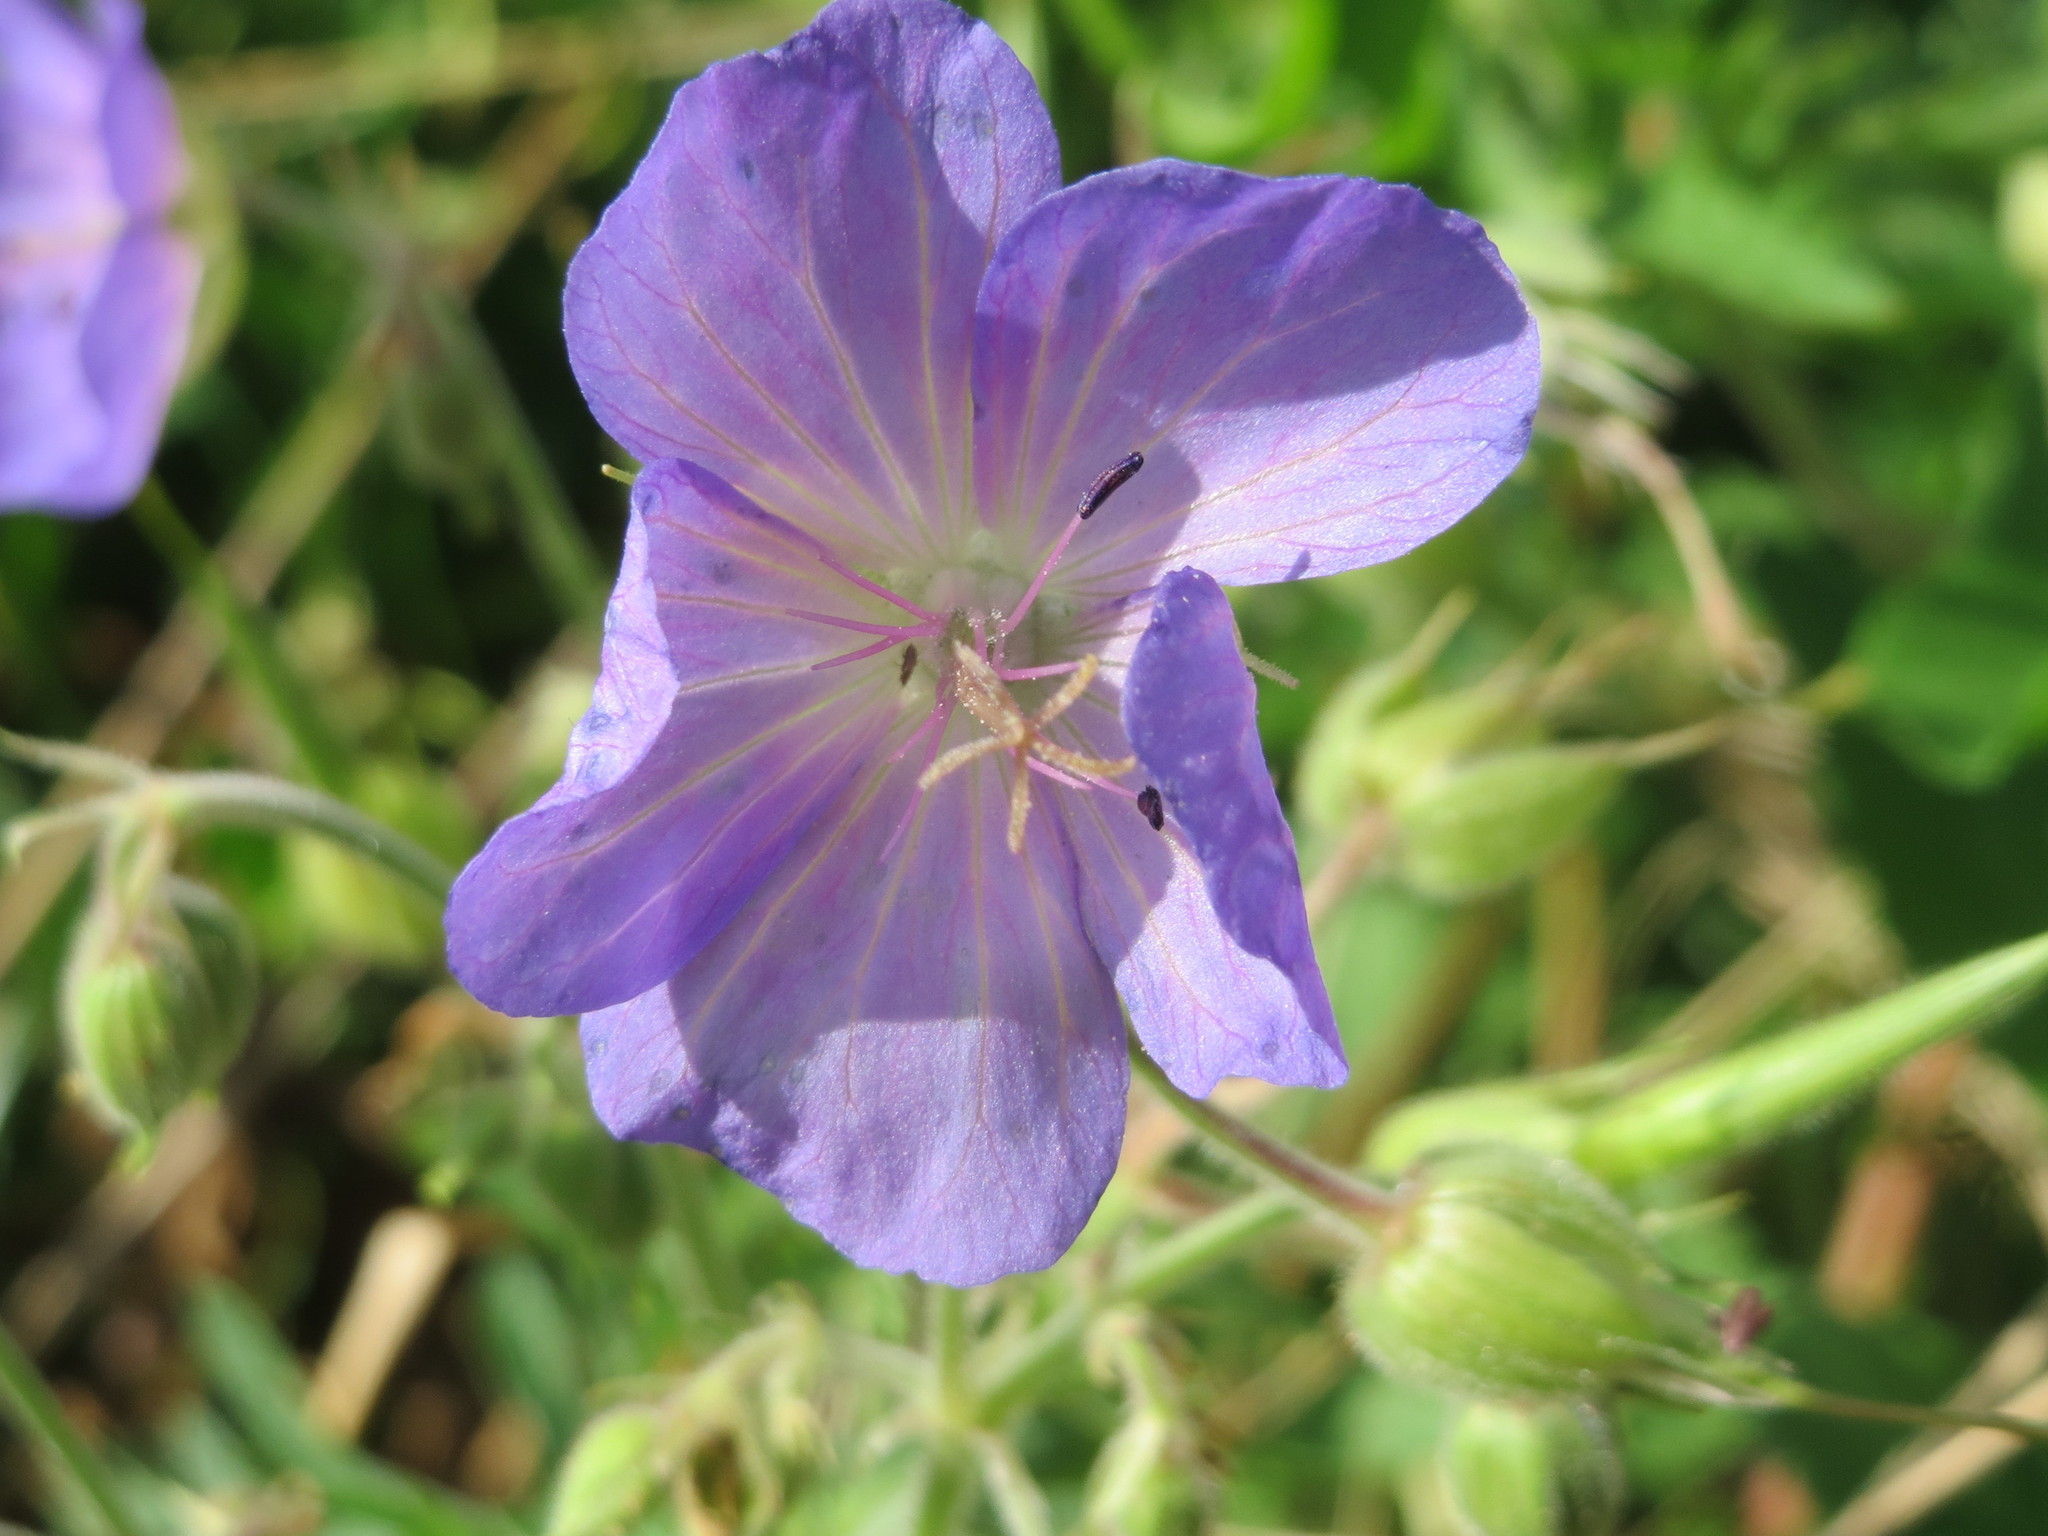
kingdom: Plantae
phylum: Tracheophyta
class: Magnoliopsida
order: Geraniales
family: Geraniaceae
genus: Geranium
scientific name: Geranium pratense
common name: Meadow crane's-bill
